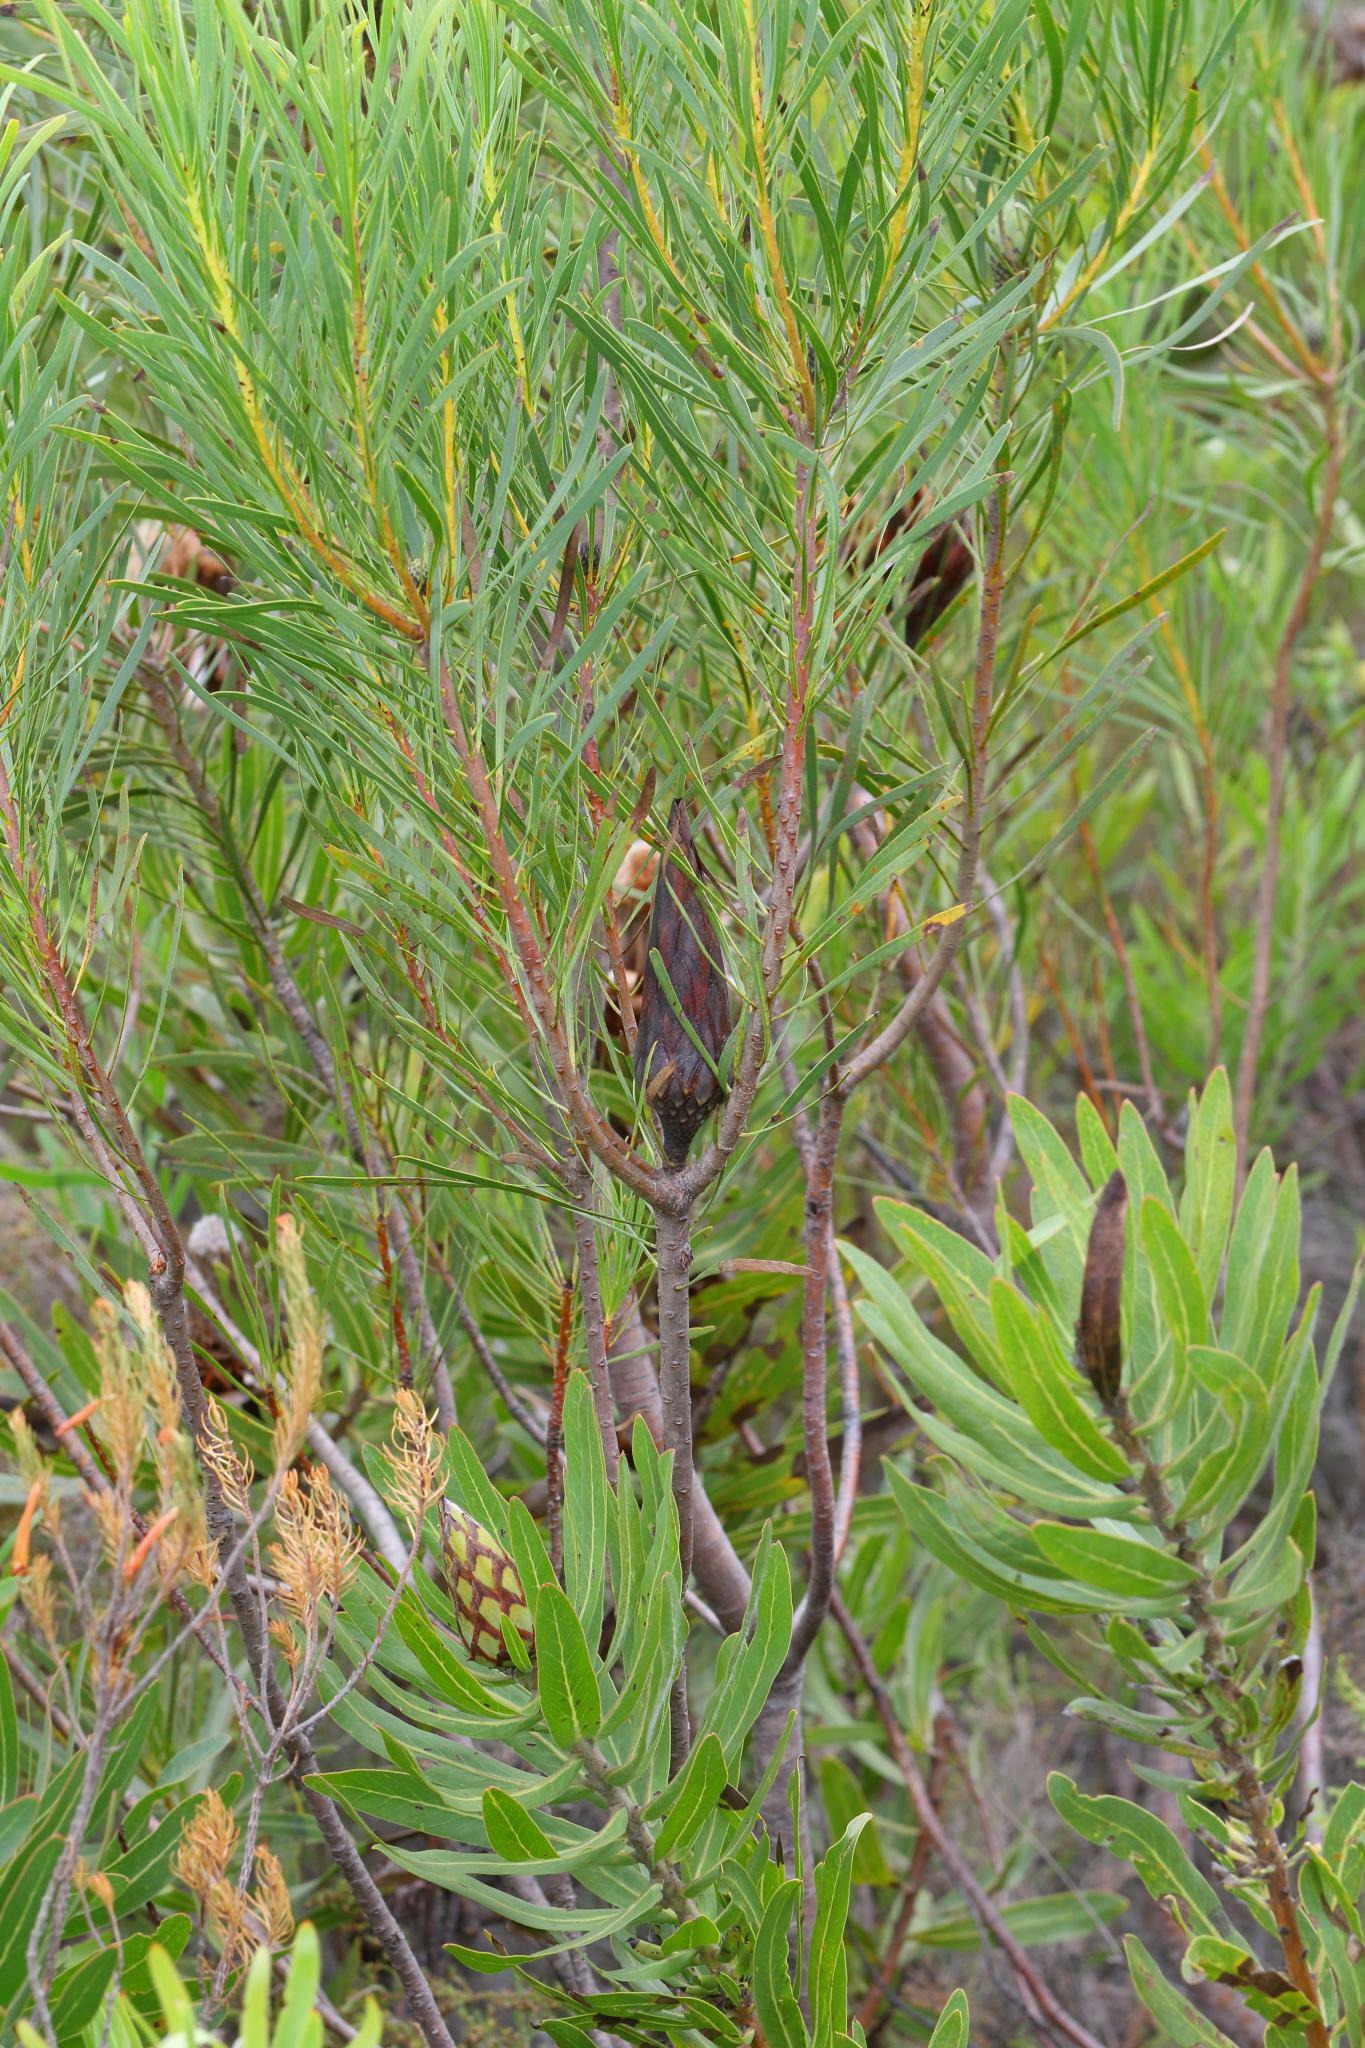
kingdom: Plantae
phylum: Tracheophyta
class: Magnoliopsida
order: Proteales
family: Proteaceae
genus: Protea
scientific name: Protea repens
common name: Sugarbush
